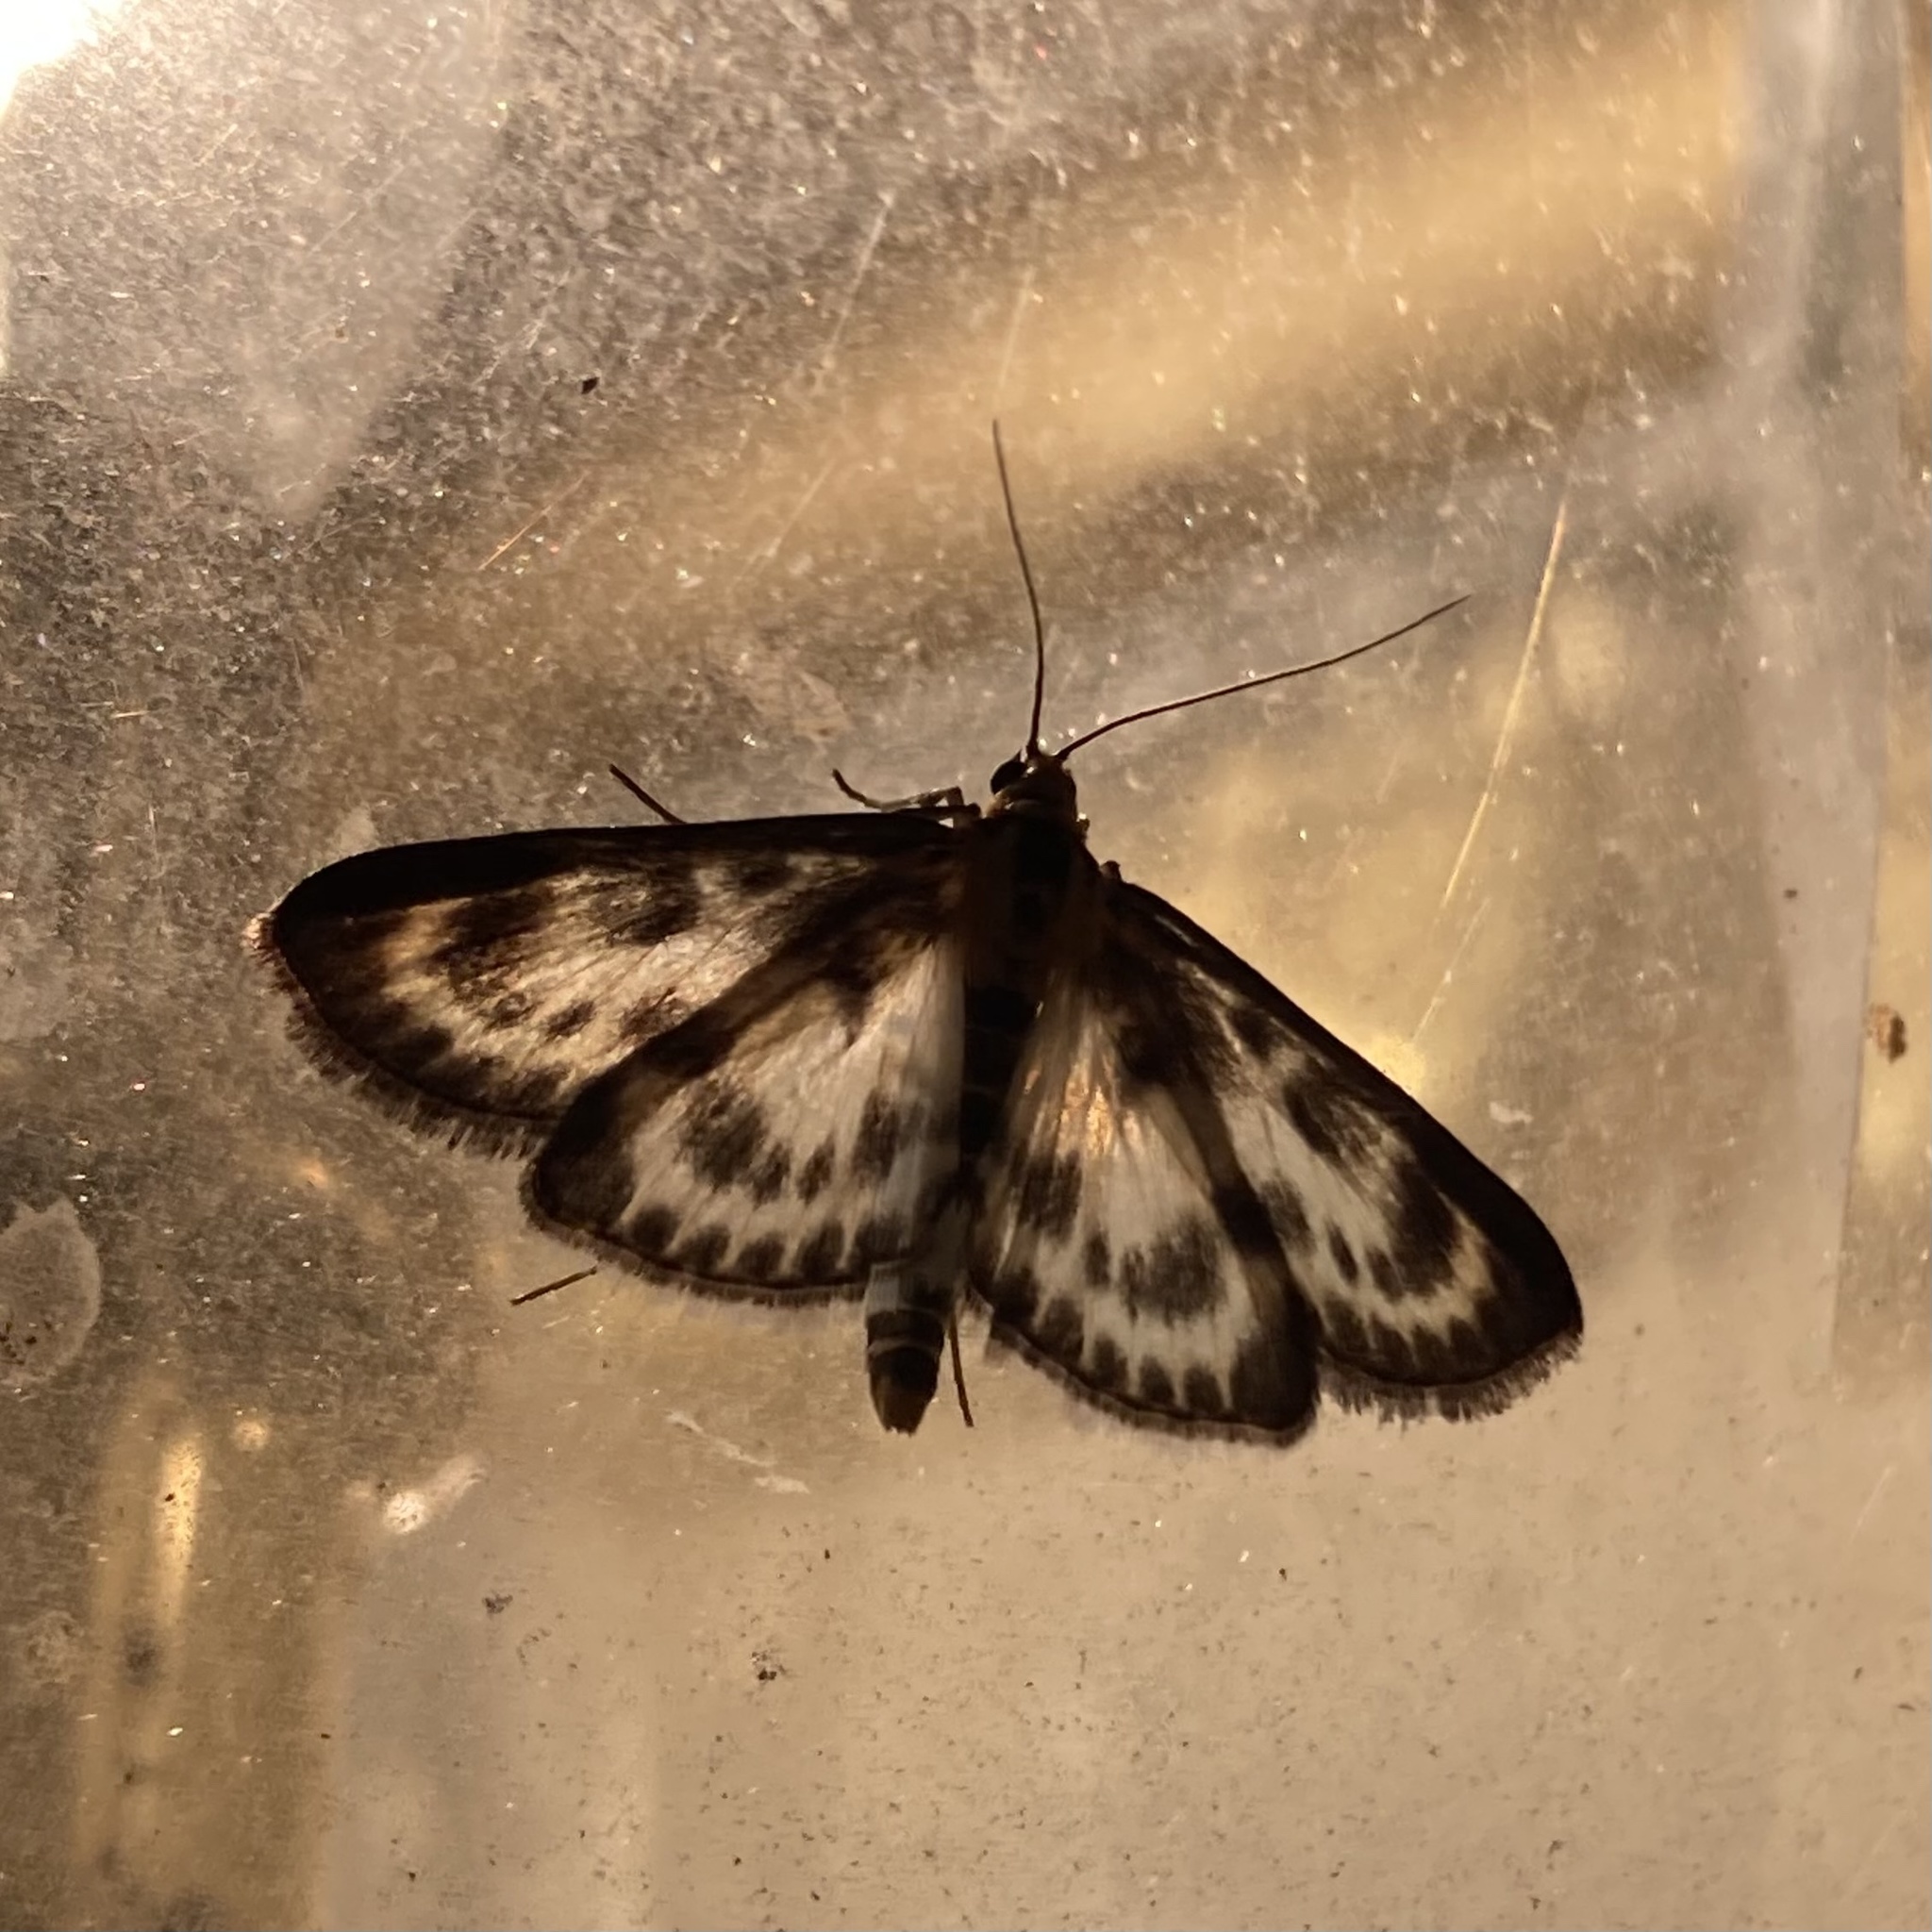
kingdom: Animalia
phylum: Arthropoda
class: Insecta
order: Lepidoptera
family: Crambidae
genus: Anania
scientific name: Anania hortulata
